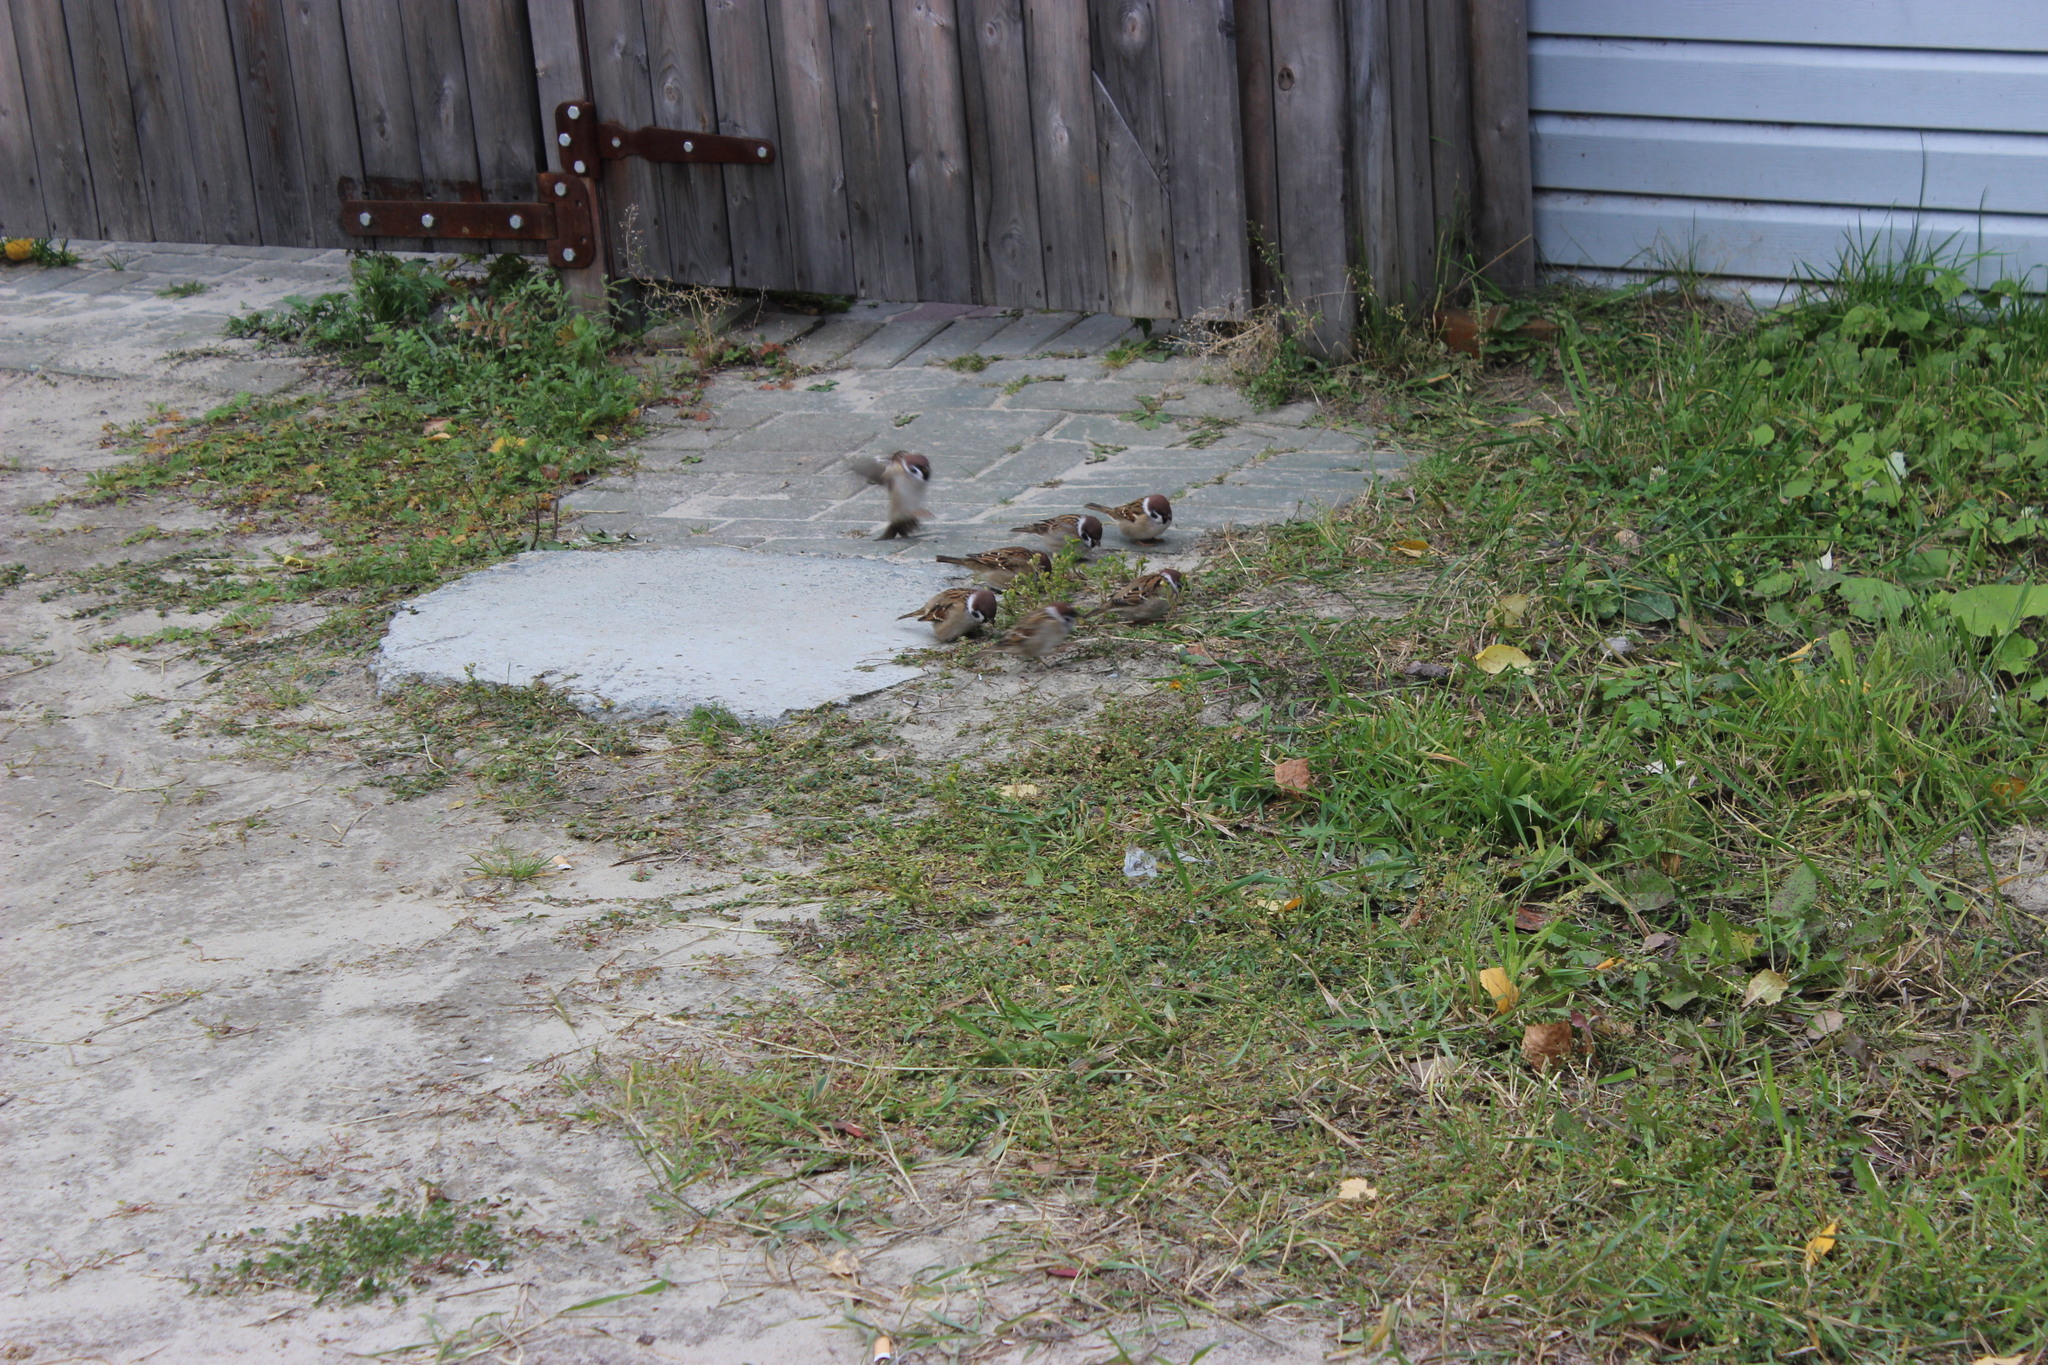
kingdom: Animalia
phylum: Chordata
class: Aves
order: Passeriformes
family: Passeridae
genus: Passer
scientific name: Passer montanus
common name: Eurasian tree sparrow
